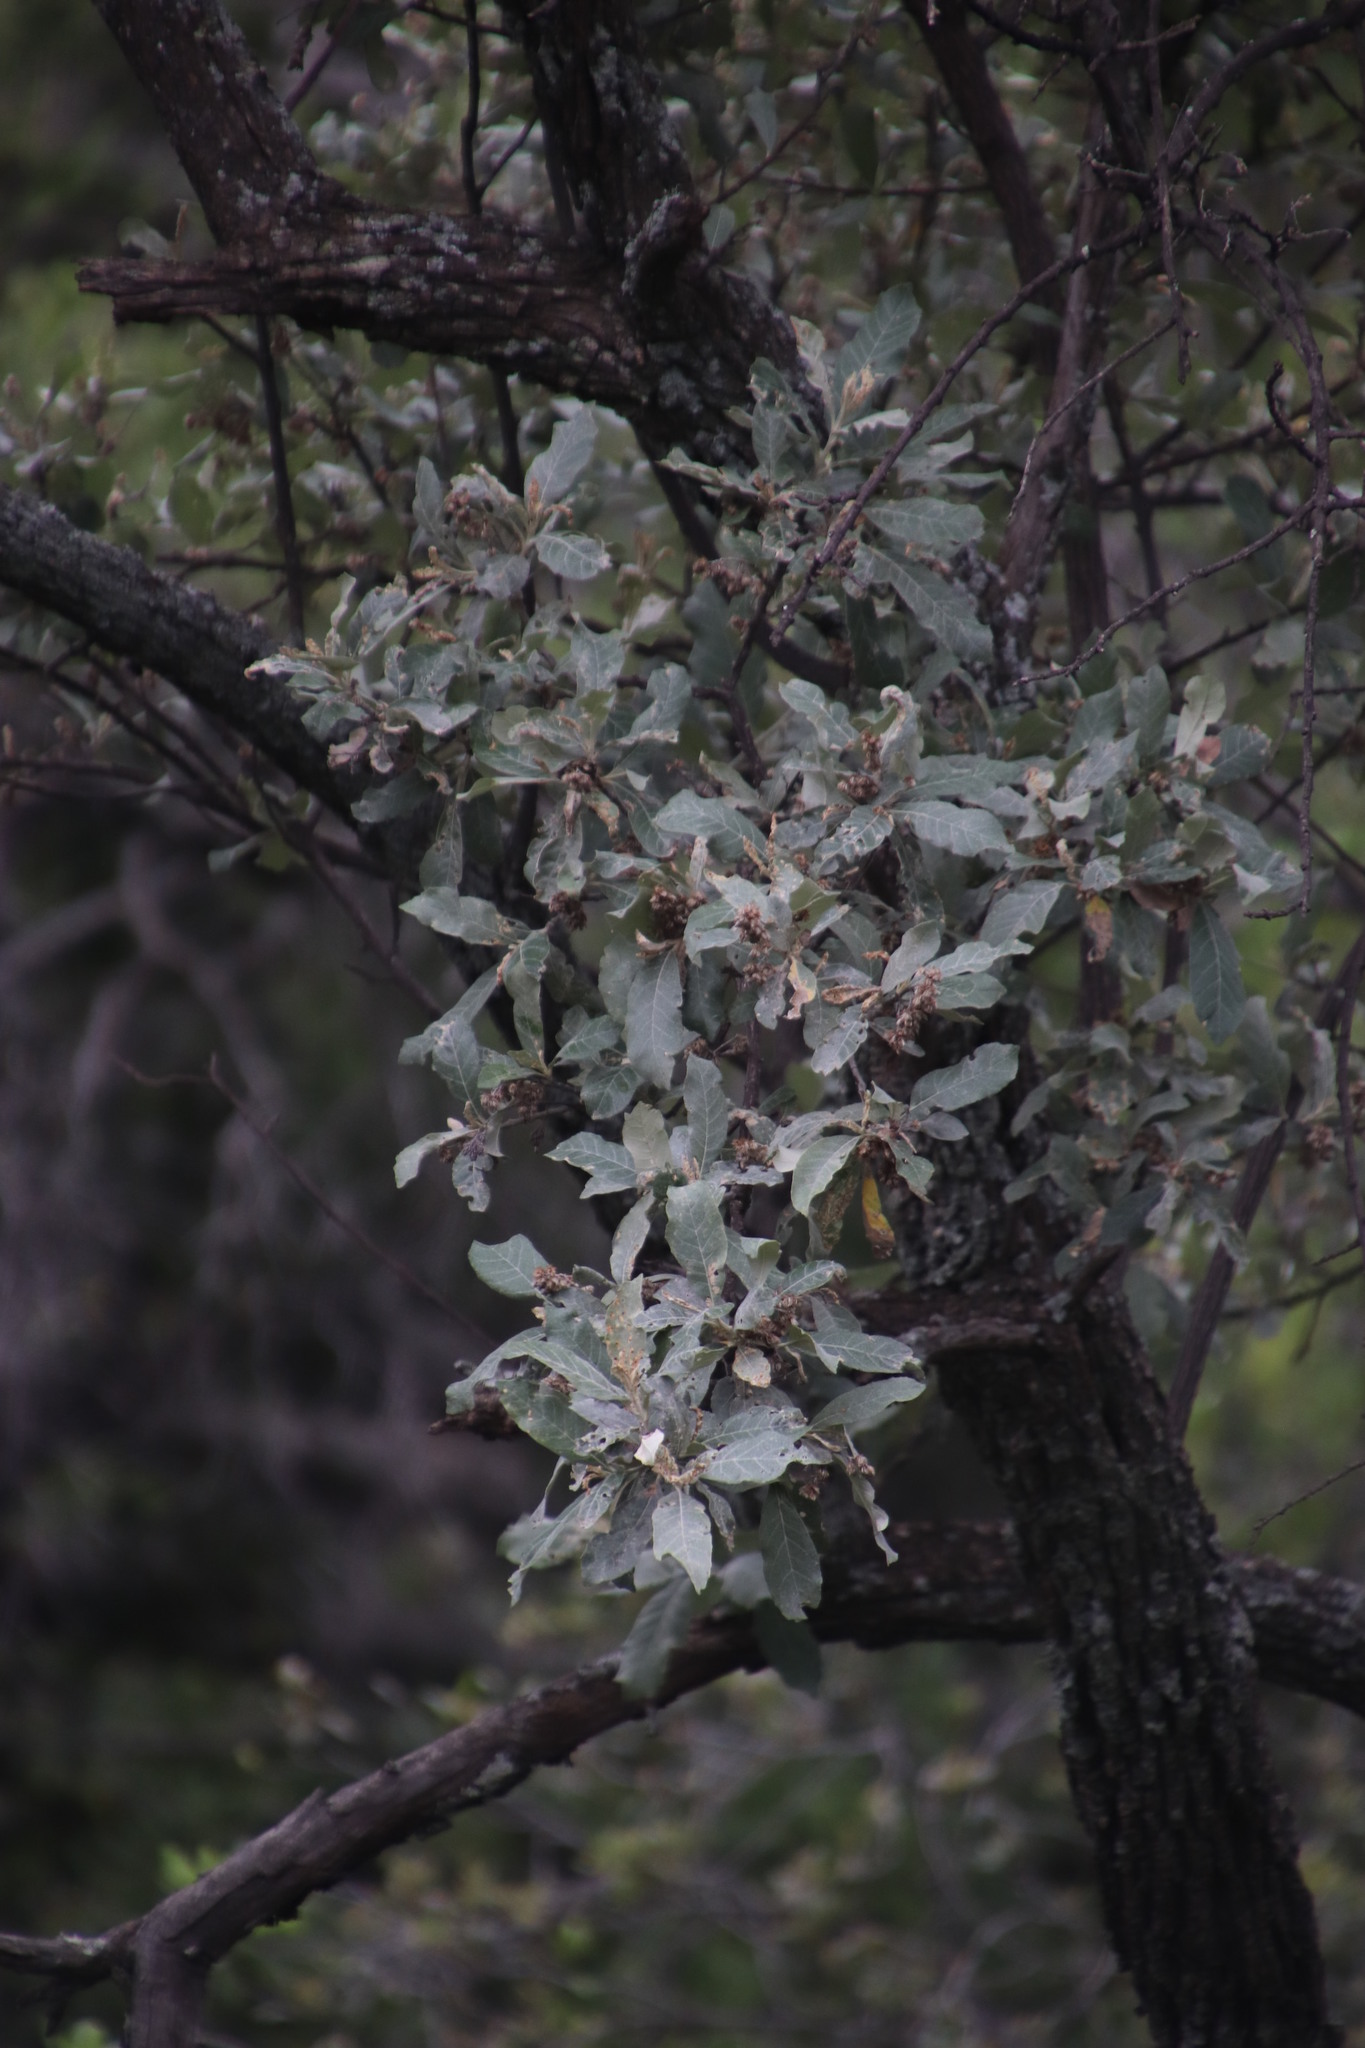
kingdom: Plantae
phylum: Tracheophyta
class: Magnoliopsida
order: Asterales
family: Asteraceae
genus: Brachylaena
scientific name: Brachylaena discolor
